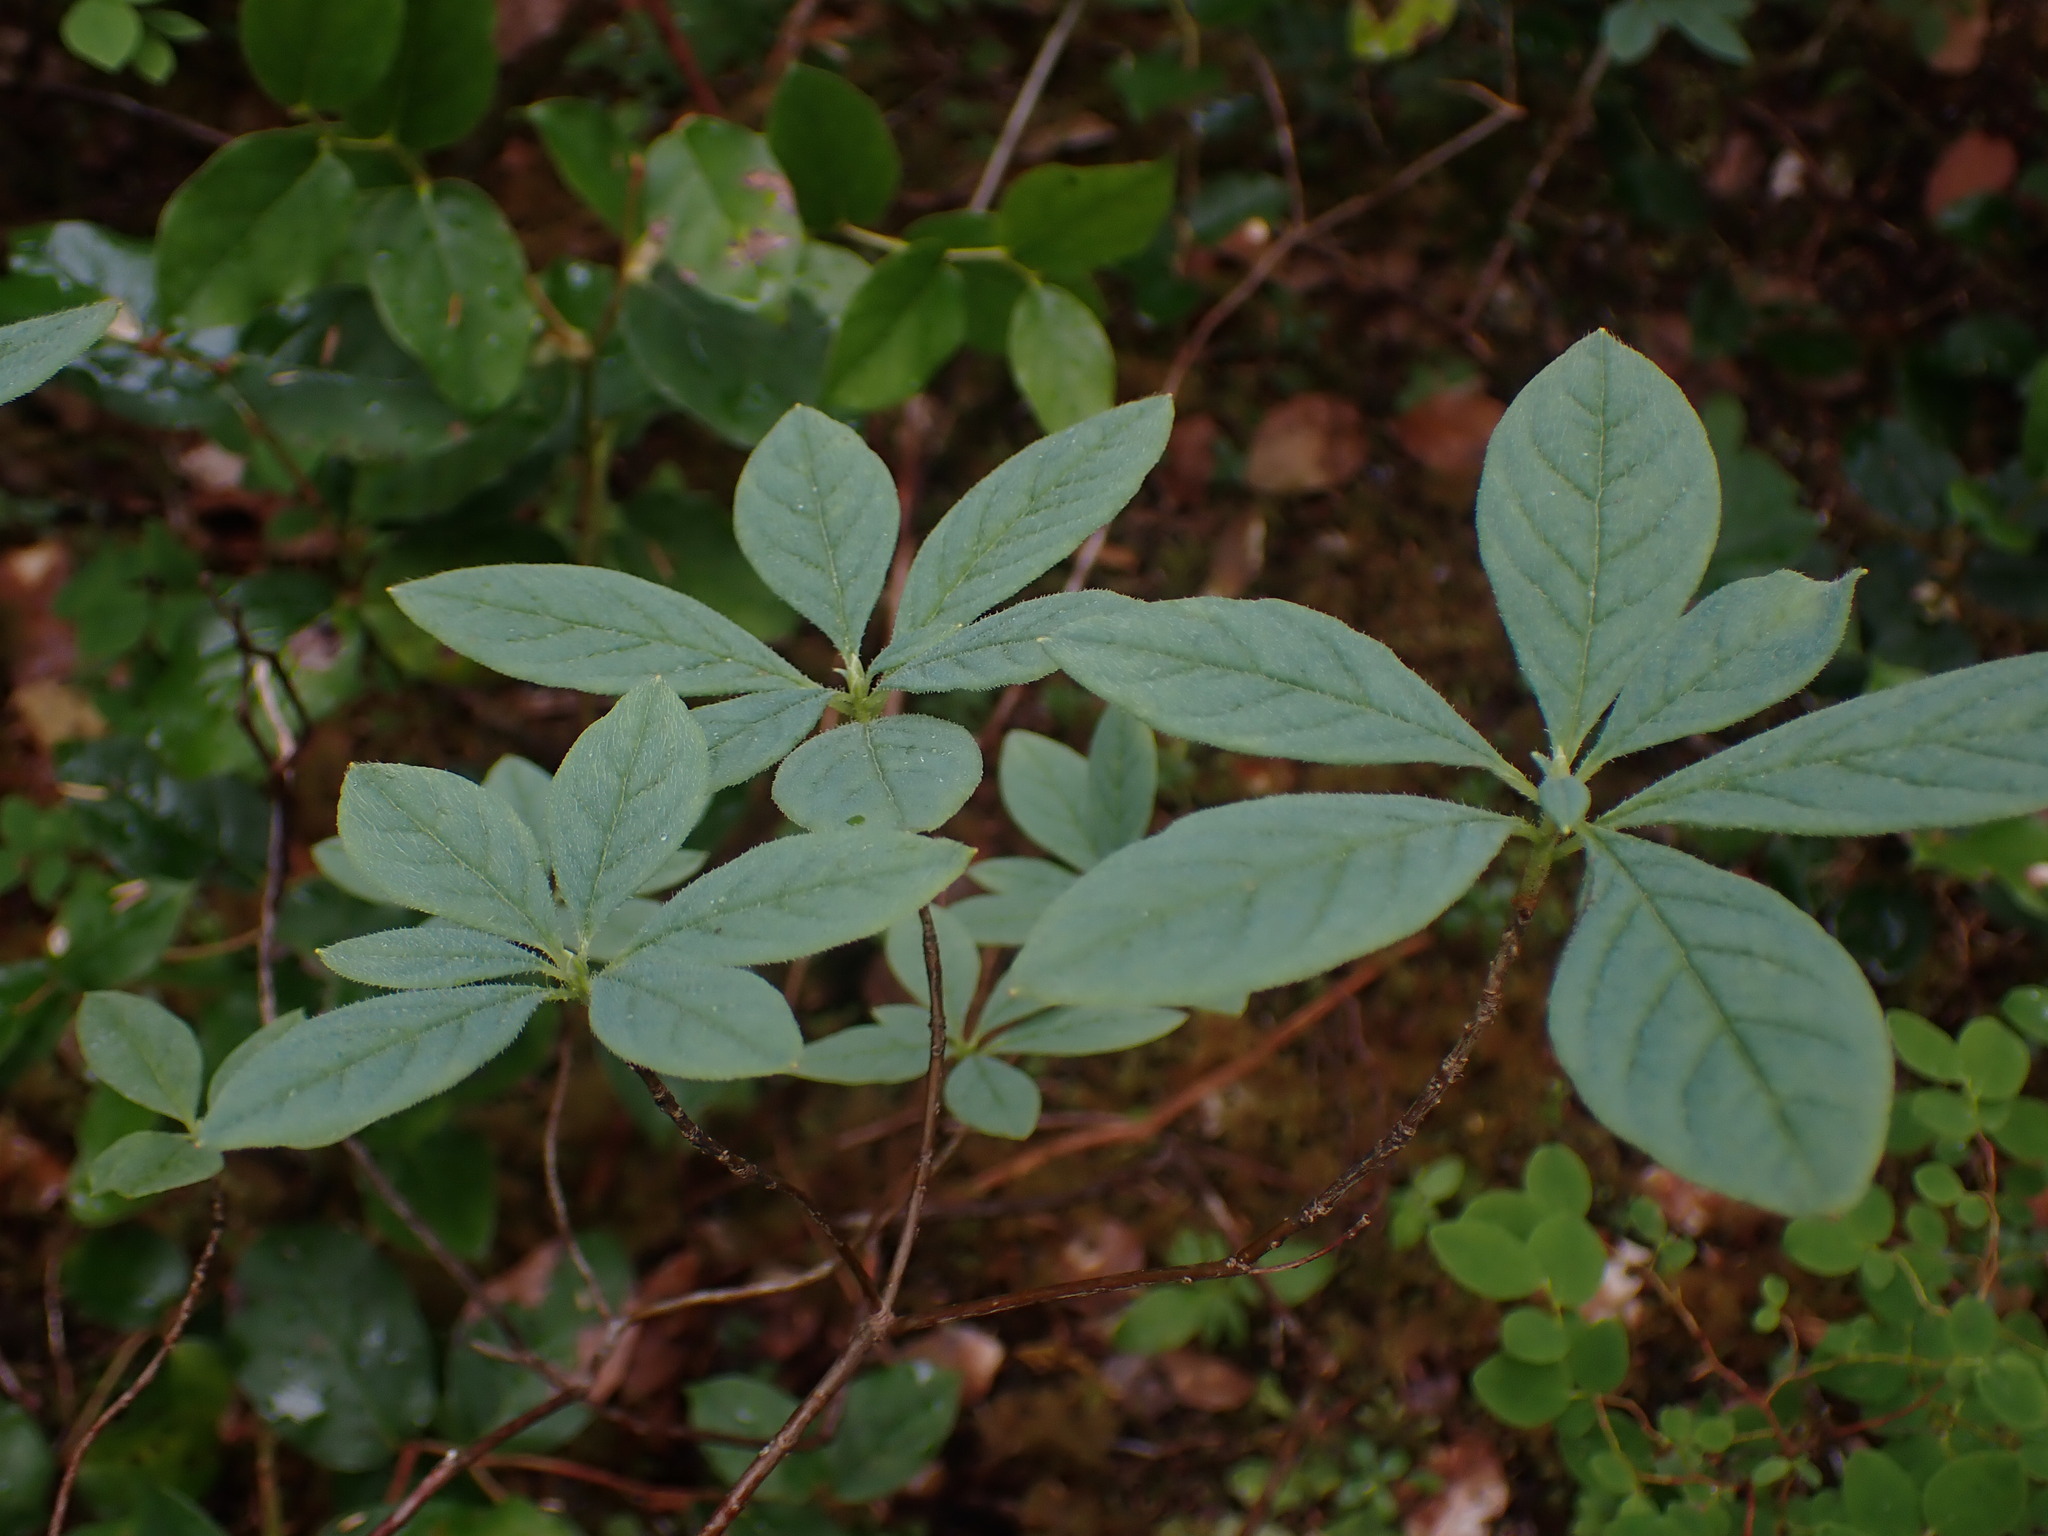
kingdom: Plantae
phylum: Tracheophyta
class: Magnoliopsida
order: Ericales
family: Ericaceae
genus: Rhododendron
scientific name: Rhododendron menziesii
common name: Pacific menziesia
